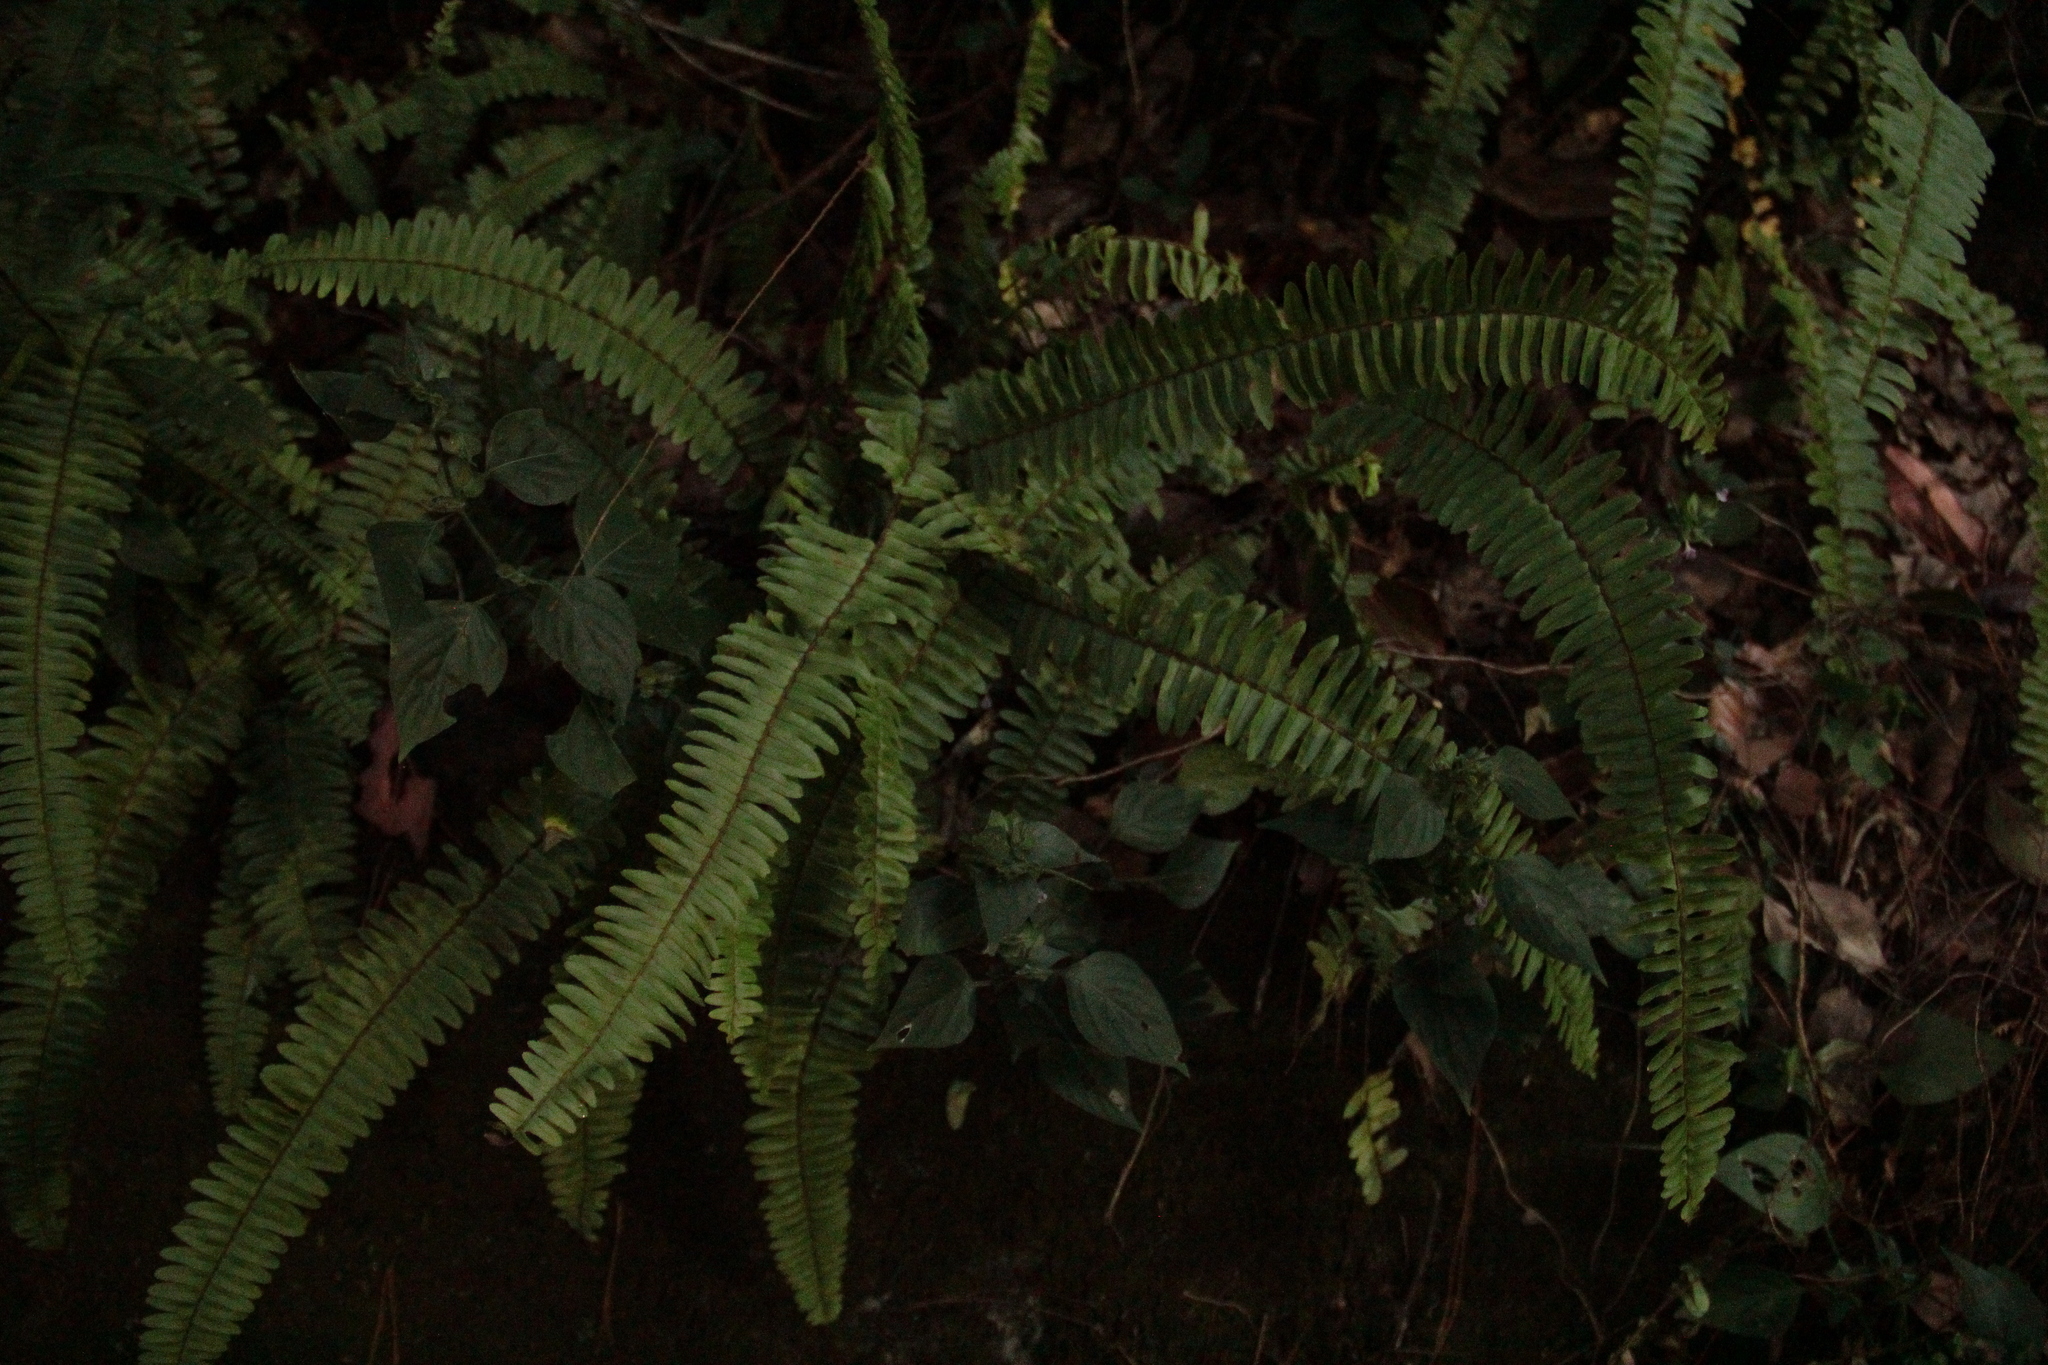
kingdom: Plantae
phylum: Tracheophyta
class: Polypodiopsida
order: Polypodiales
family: Nephrolepidaceae
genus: Nephrolepis
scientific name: Nephrolepis cordifolia
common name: Narrow swordfern
